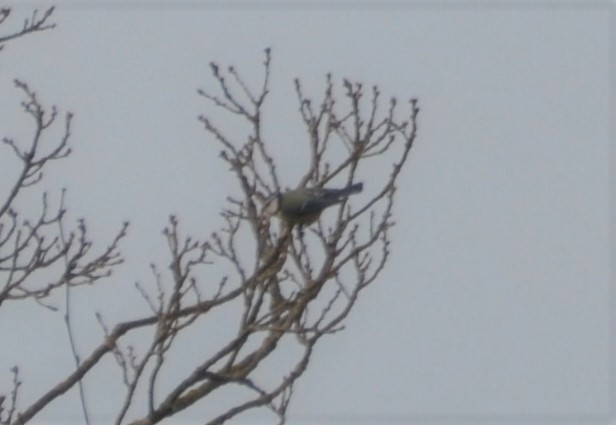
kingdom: Animalia
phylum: Chordata
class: Aves
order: Passeriformes
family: Paridae
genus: Cyanistes
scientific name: Cyanistes caeruleus
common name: Eurasian blue tit
